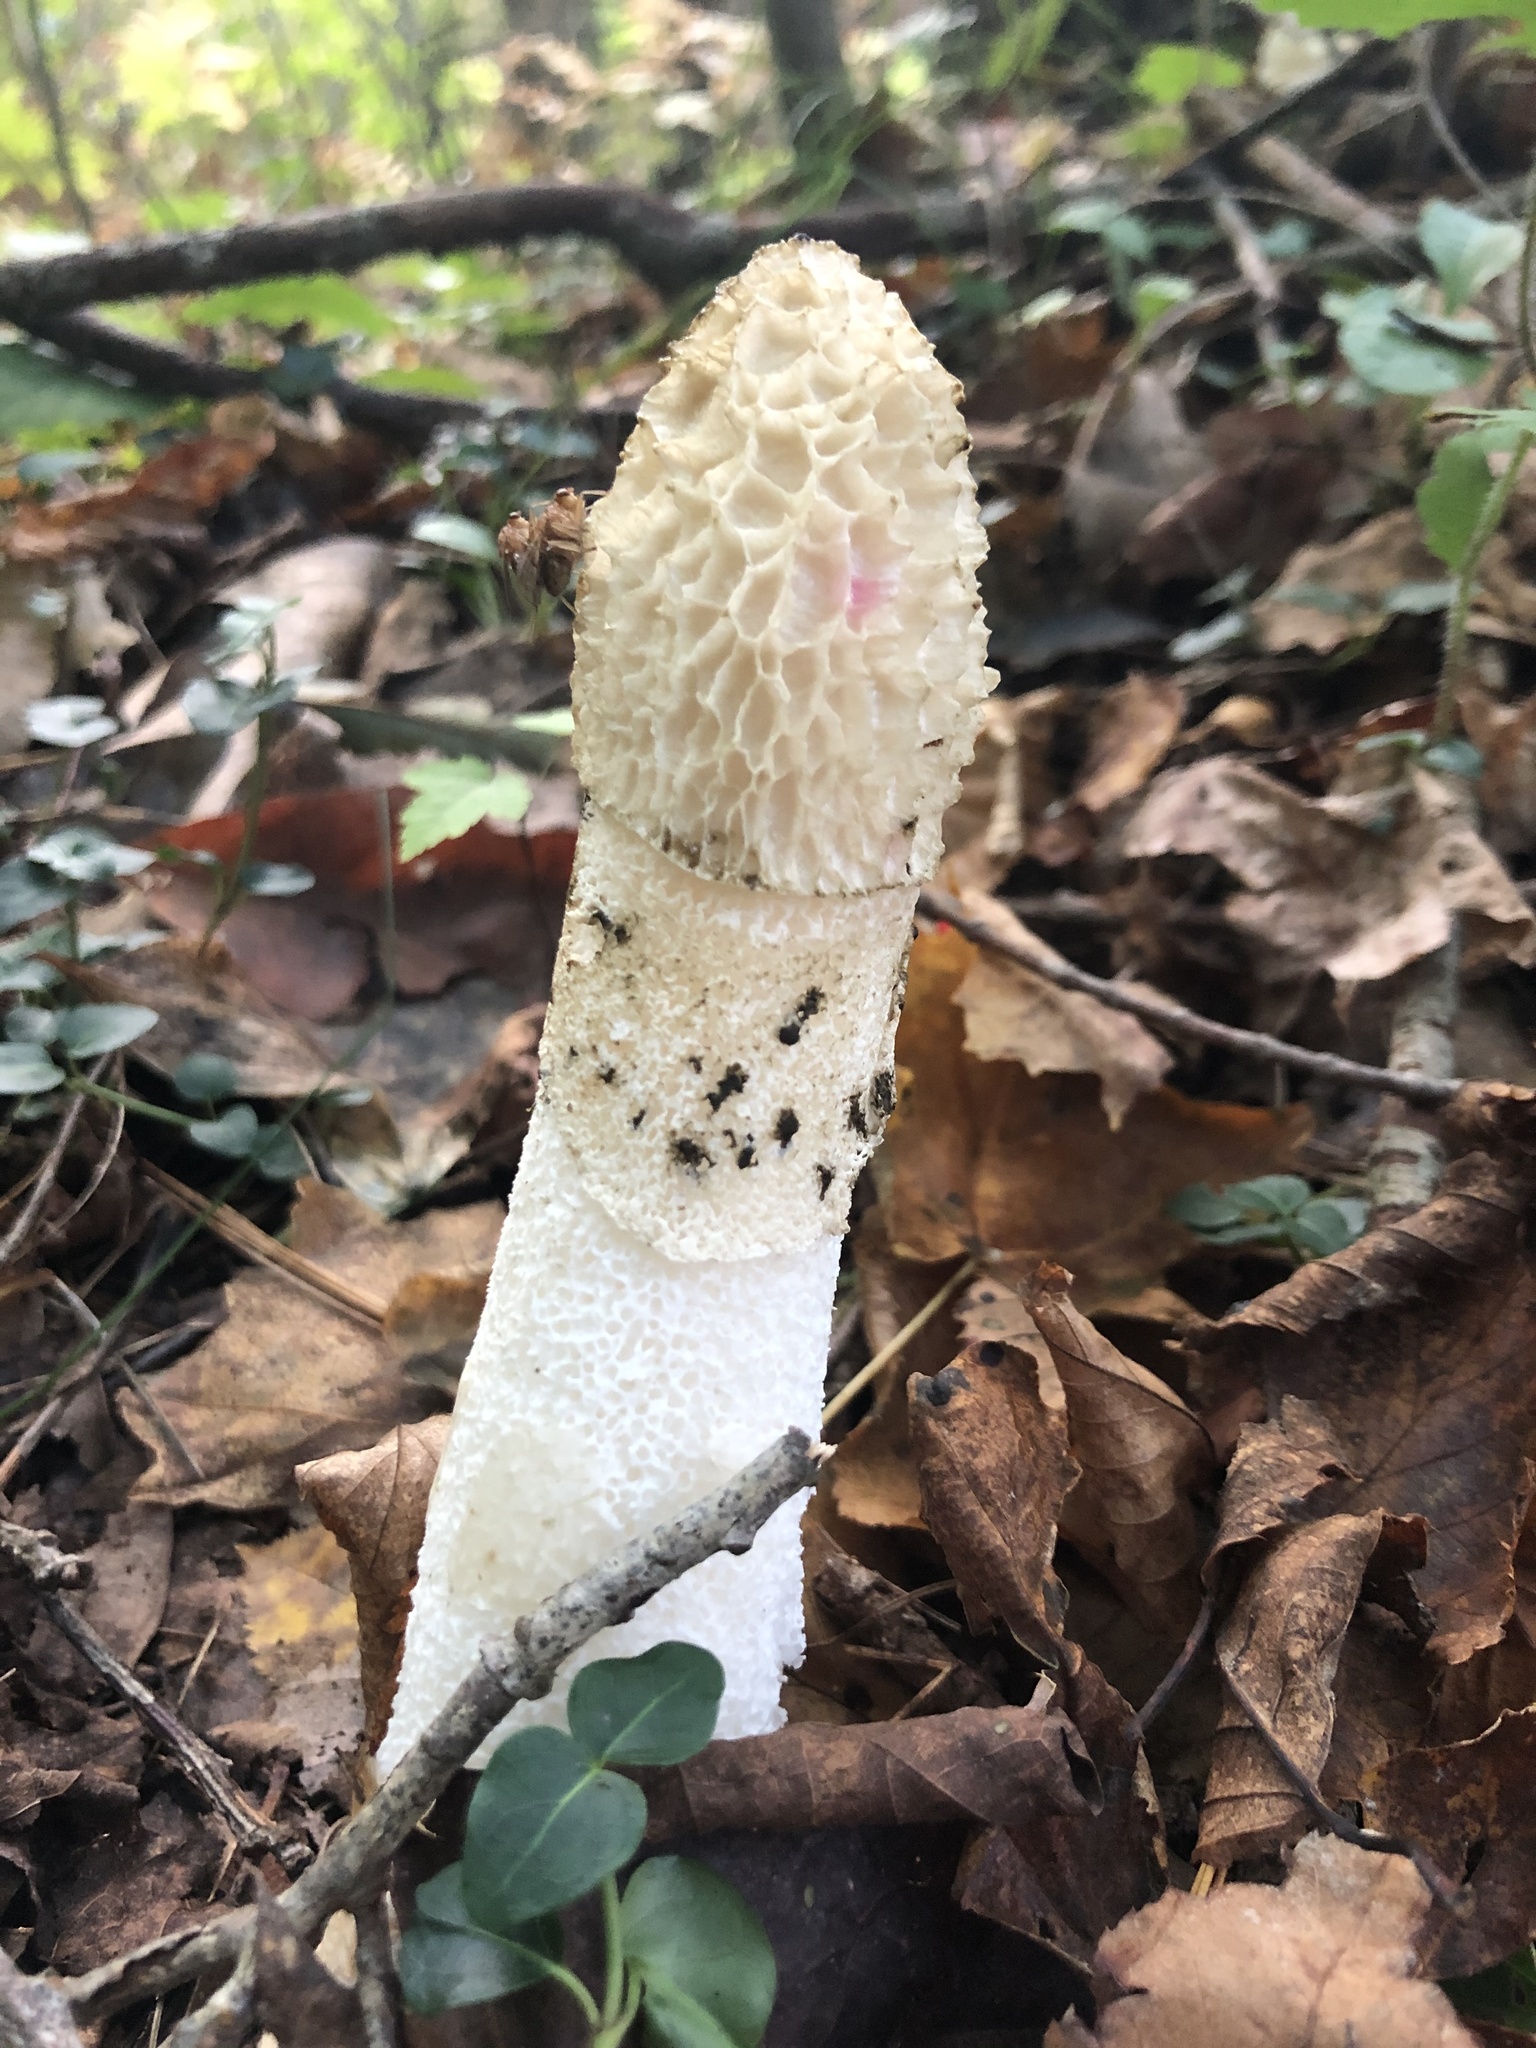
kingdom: Fungi
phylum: Basidiomycota
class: Agaricomycetes
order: Phallales
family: Phallaceae
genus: Phallus
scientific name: Phallus indusiatus
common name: Bridal veil stinkhorn
